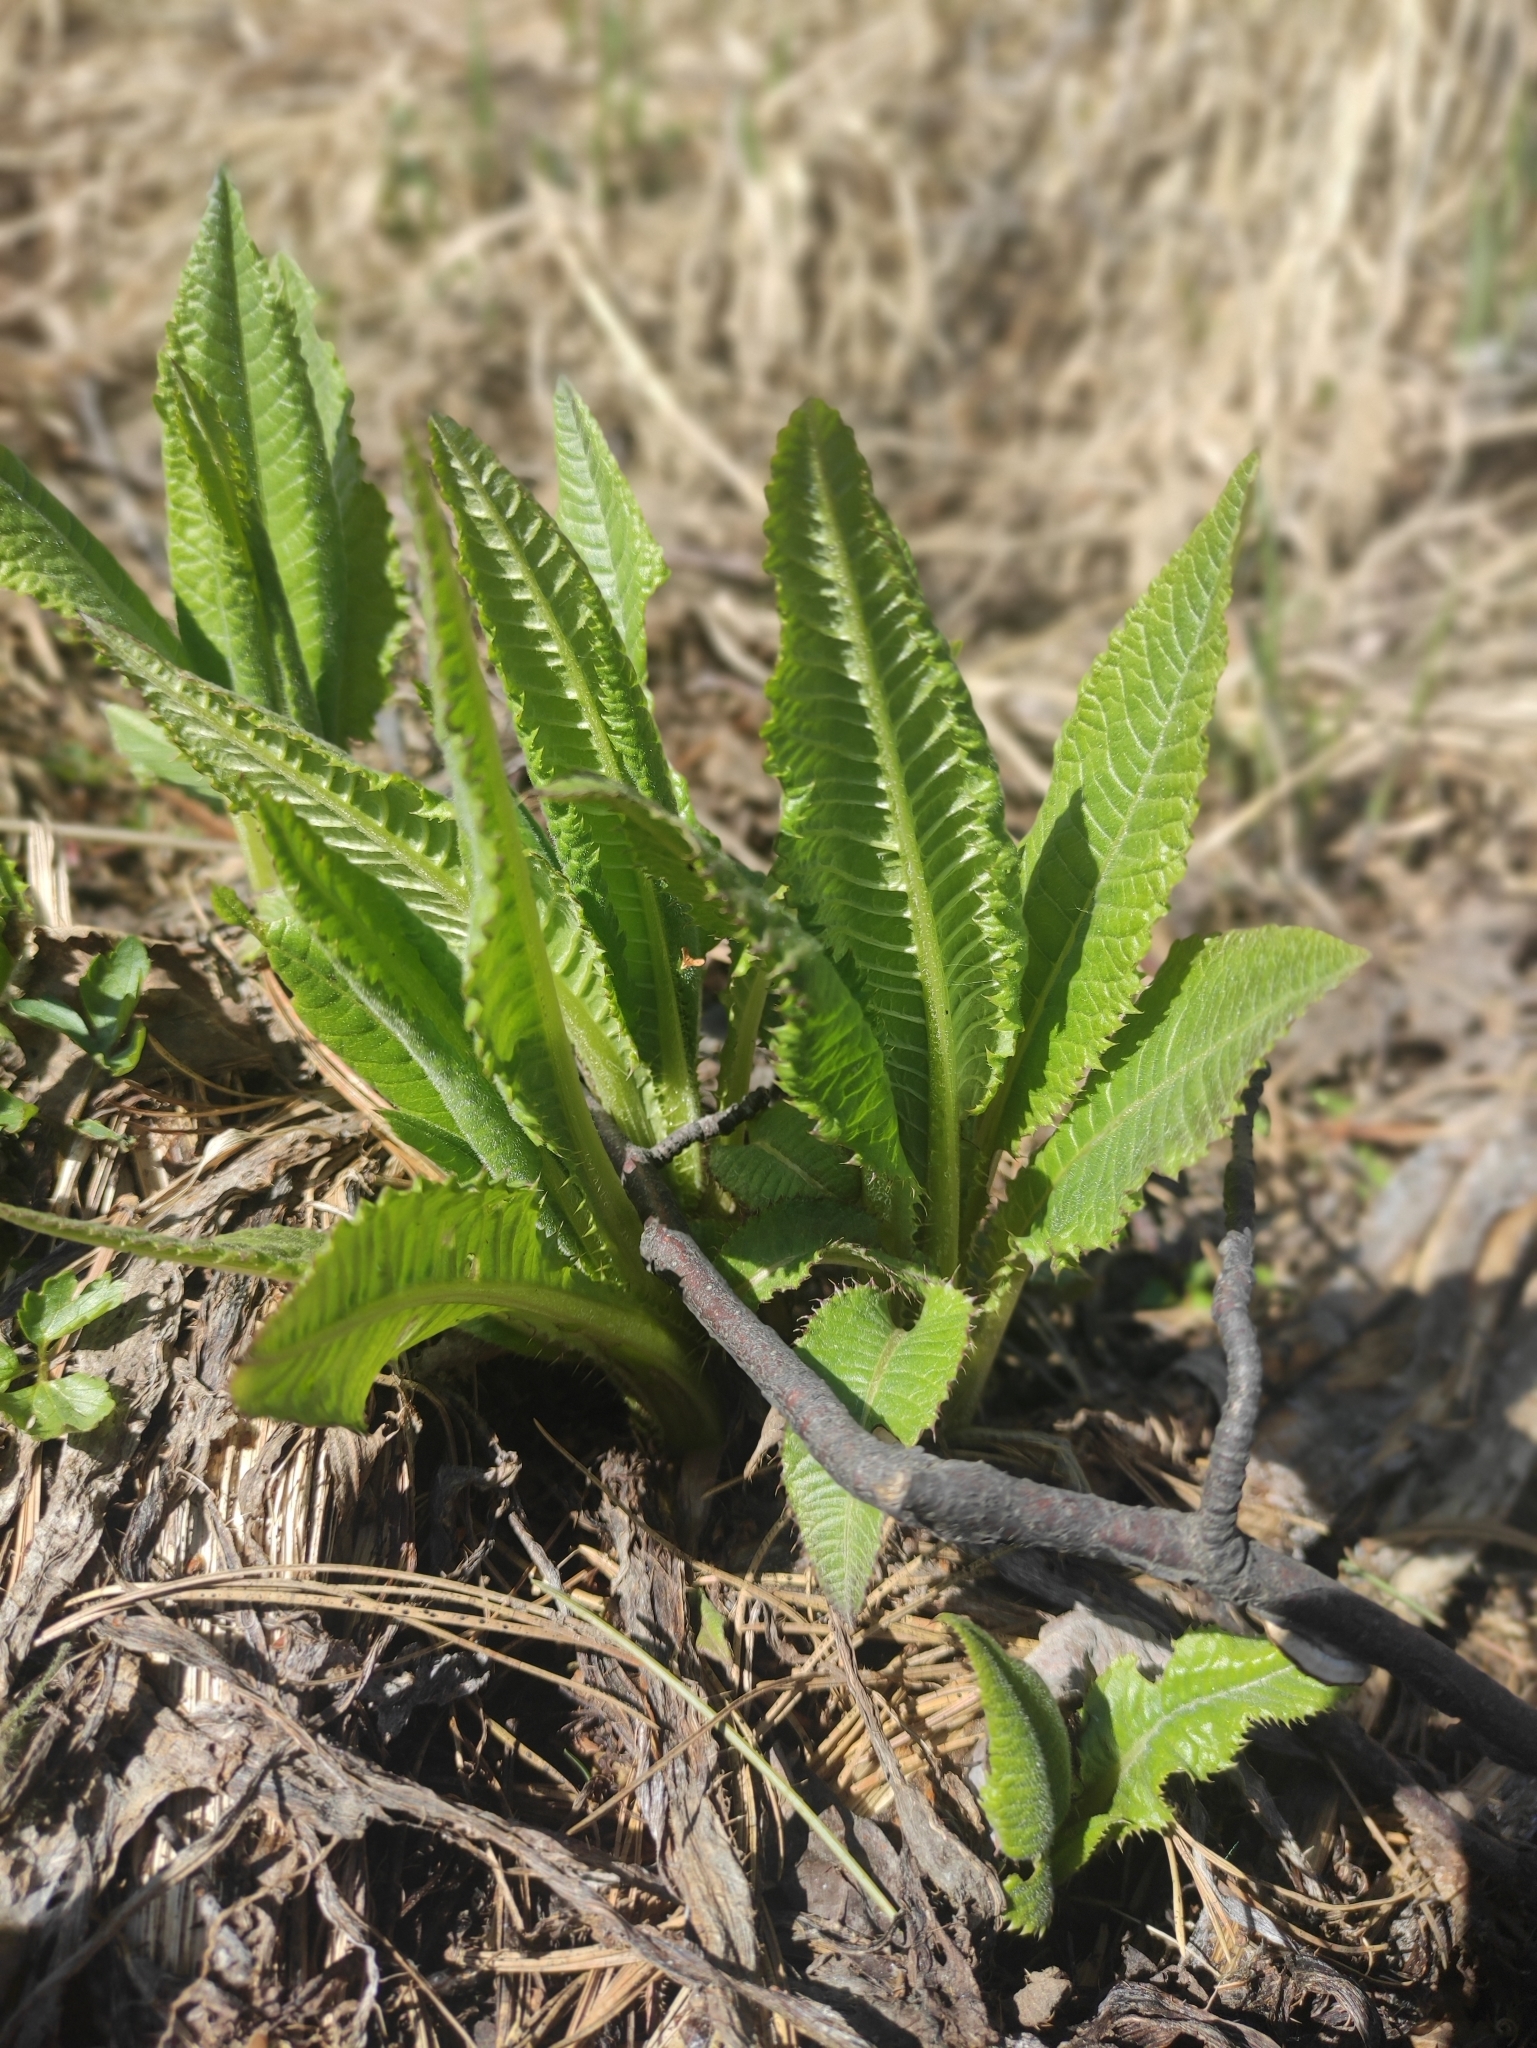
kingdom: Plantae
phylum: Tracheophyta
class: Magnoliopsida
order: Asterales
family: Asteraceae
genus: Cirsium
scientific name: Cirsium helenioides
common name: Melancholy thistle
